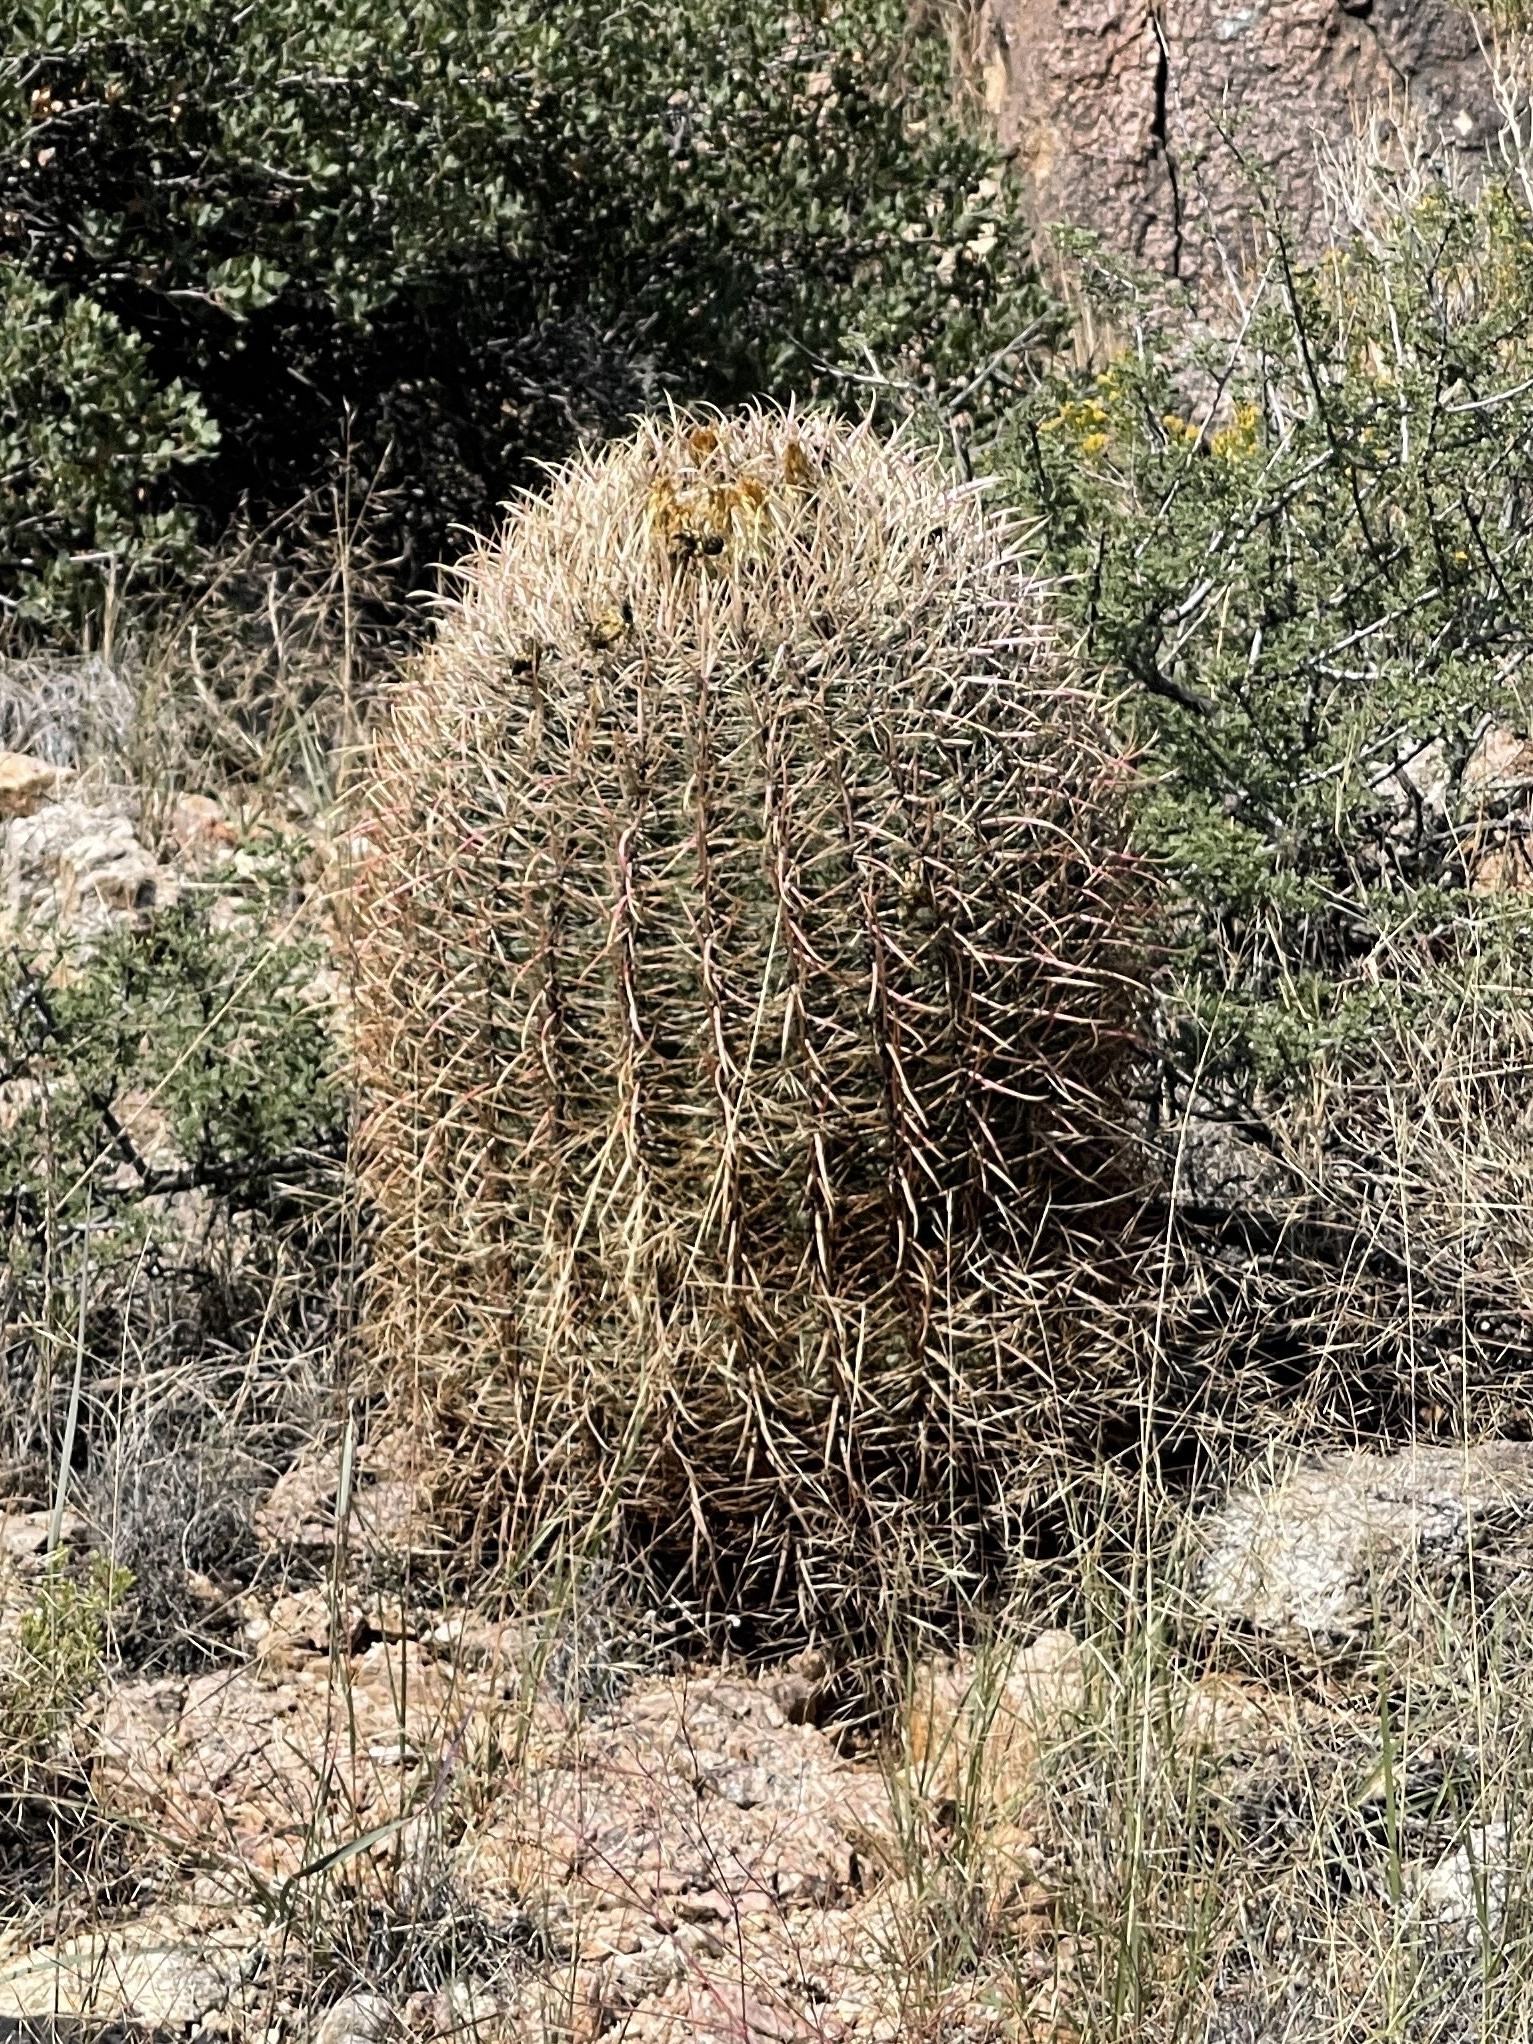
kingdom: Plantae
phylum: Tracheophyta
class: Magnoliopsida
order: Caryophyllales
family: Cactaceae
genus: Ferocactus
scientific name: Ferocactus cylindraceus
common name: California barrel cactus
